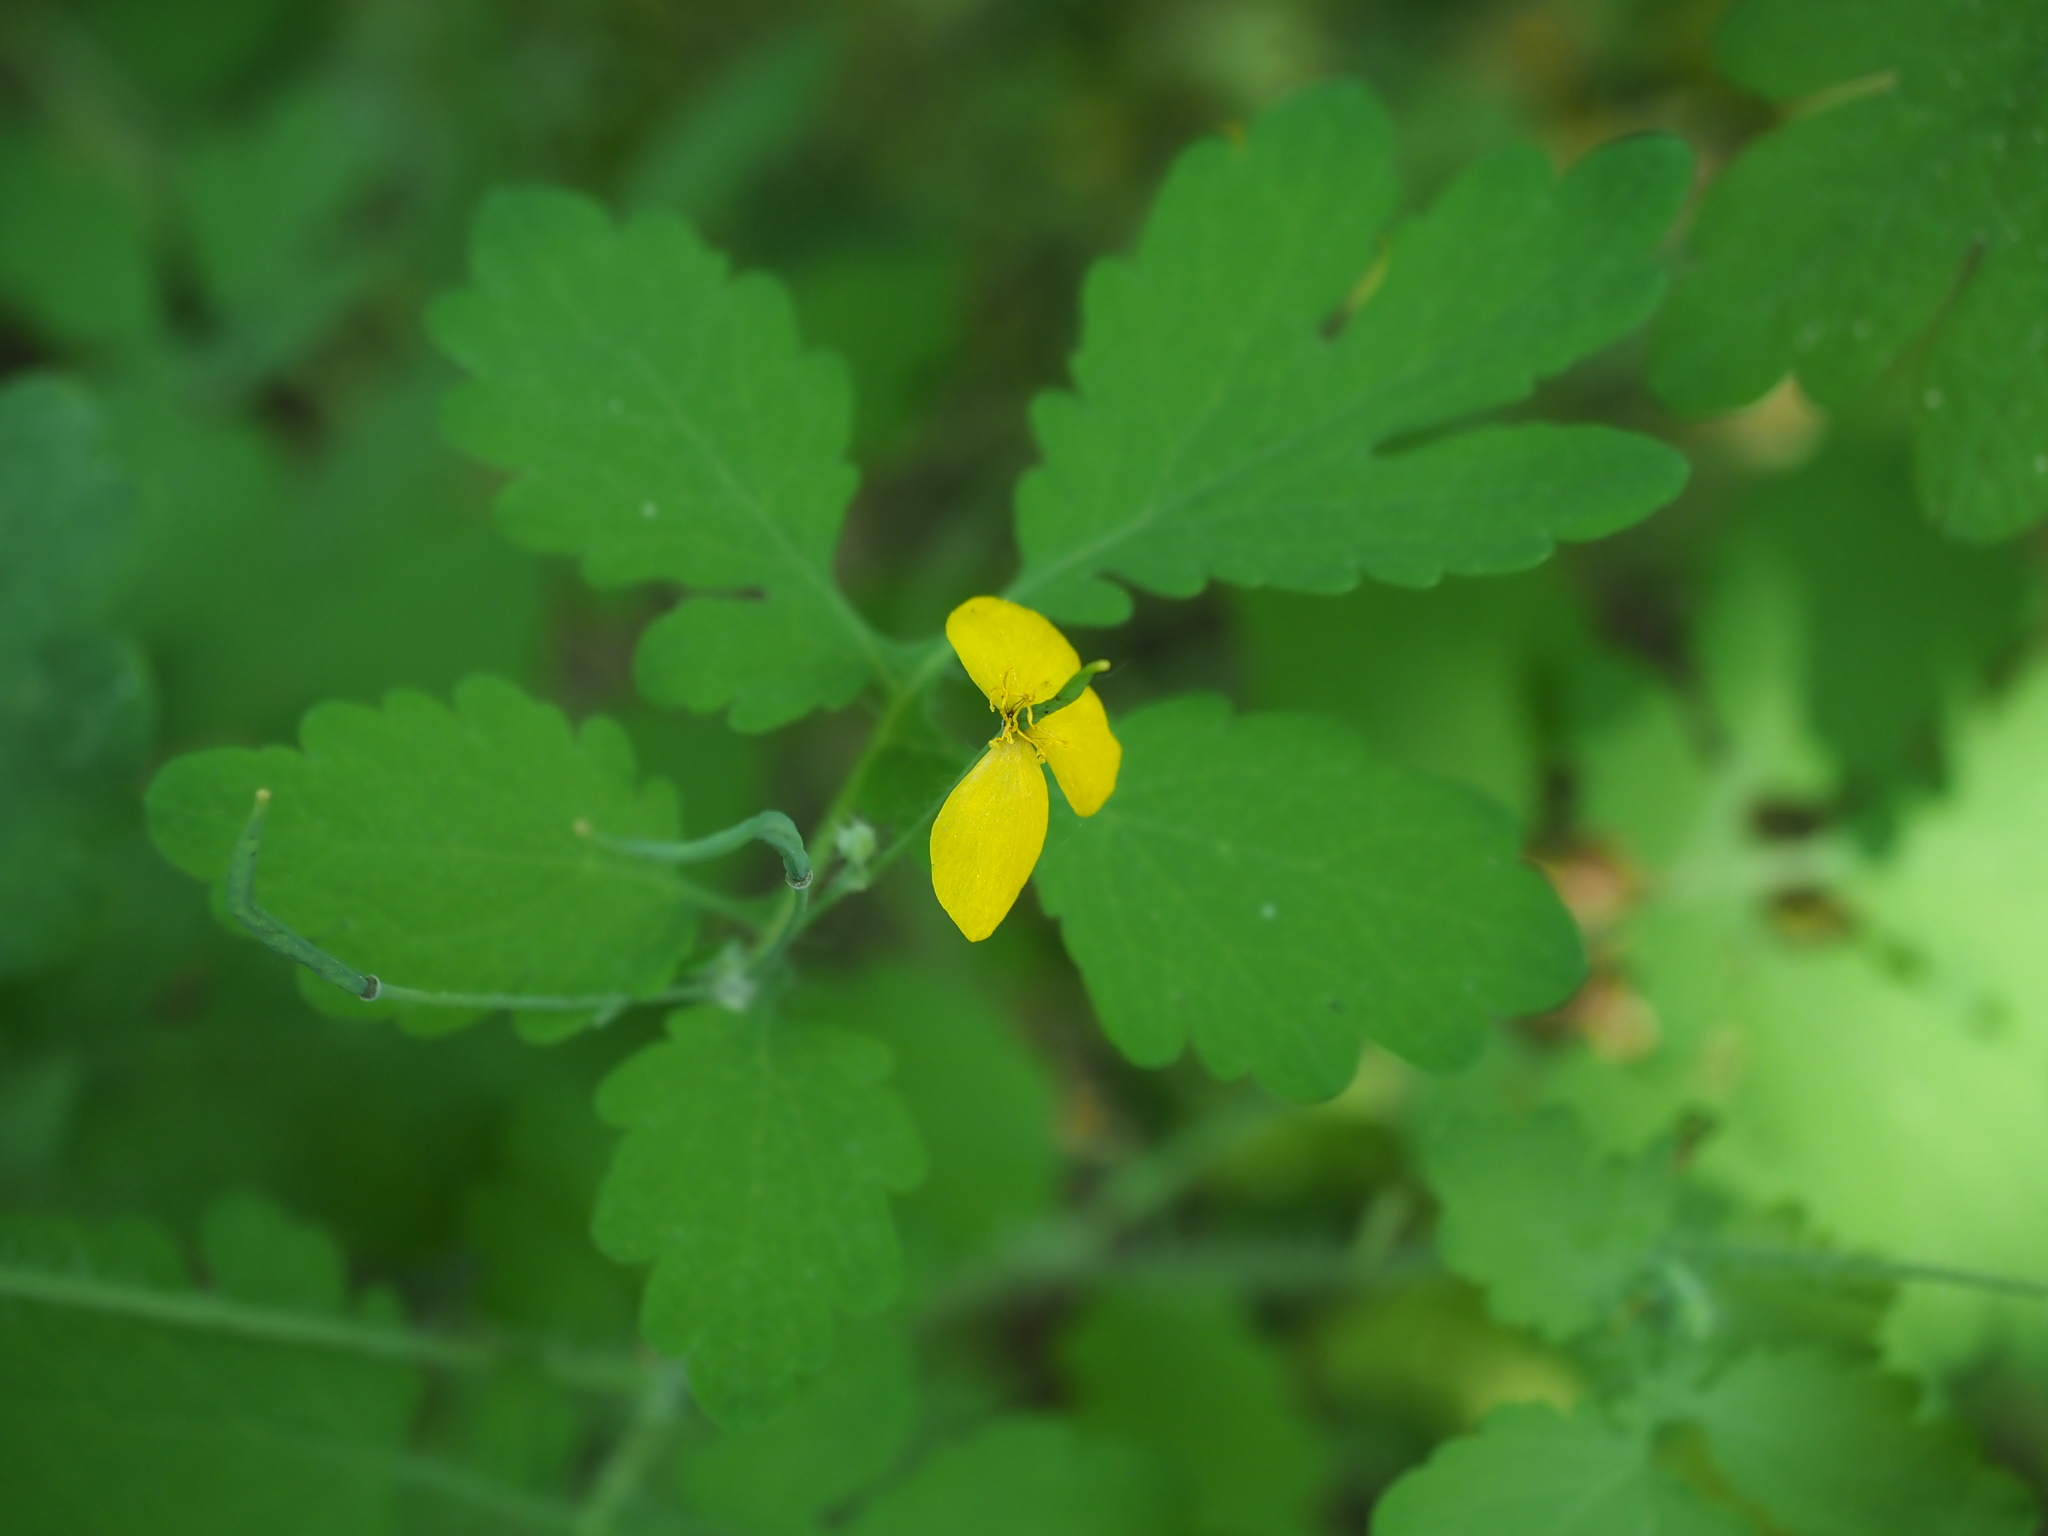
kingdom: Plantae
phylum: Tracheophyta
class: Magnoliopsida
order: Ranunculales
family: Papaveraceae
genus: Chelidonium
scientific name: Chelidonium majus
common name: Greater celandine
